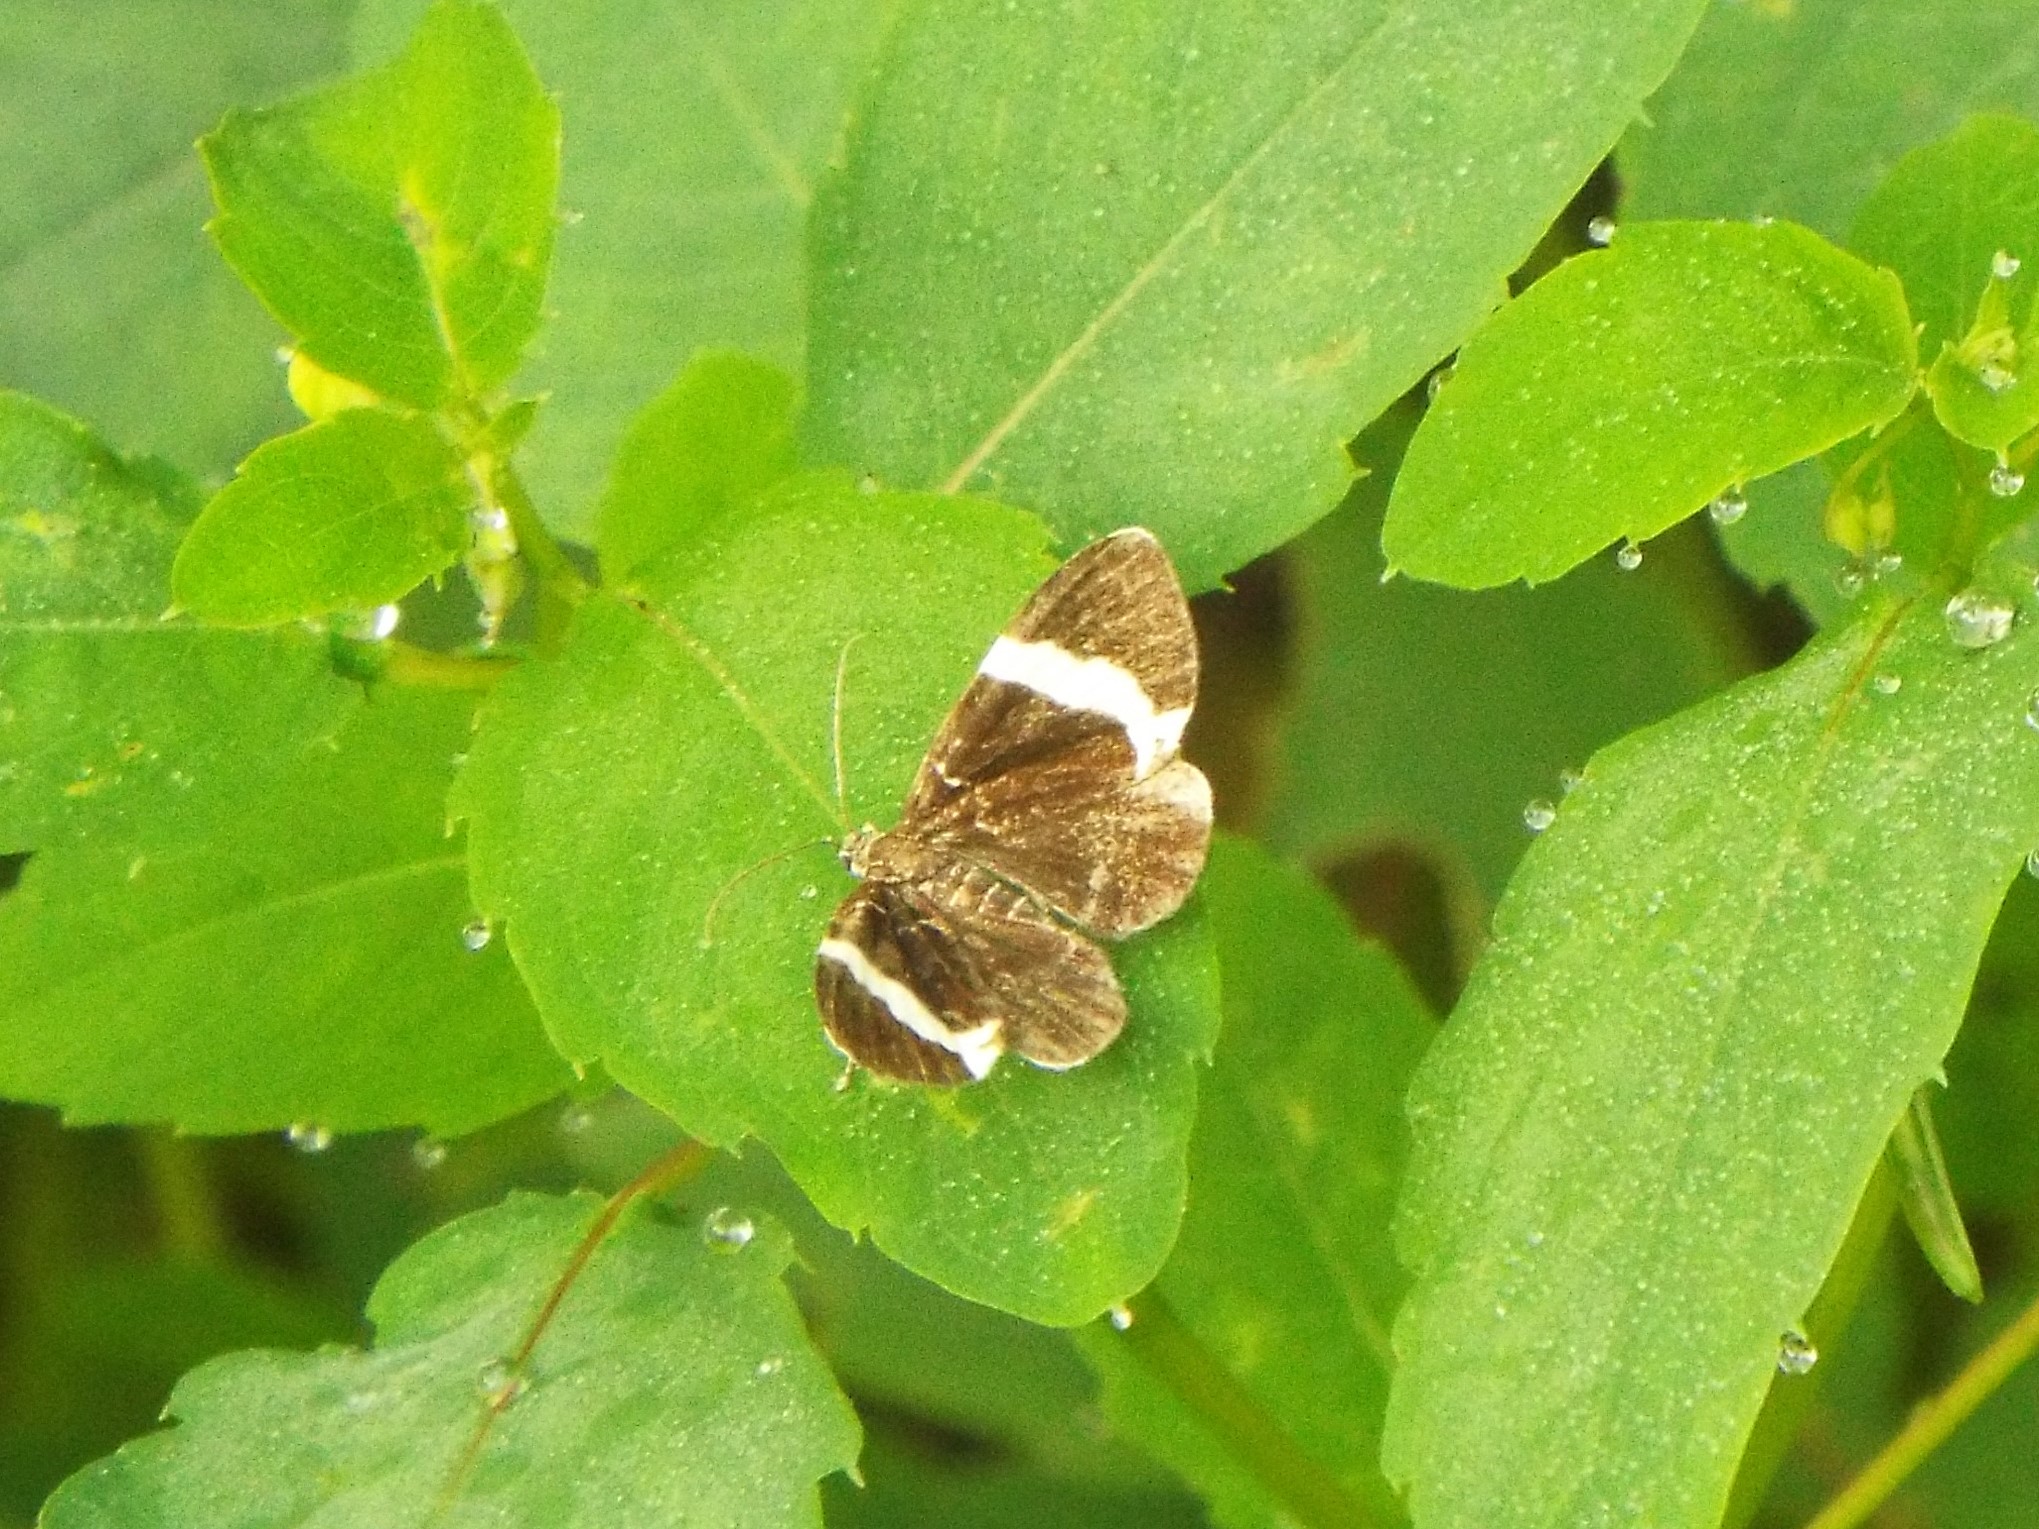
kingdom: Animalia
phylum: Arthropoda
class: Insecta
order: Lepidoptera
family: Geometridae
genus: Trichodezia
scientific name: Trichodezia albovittata
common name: White striped black
